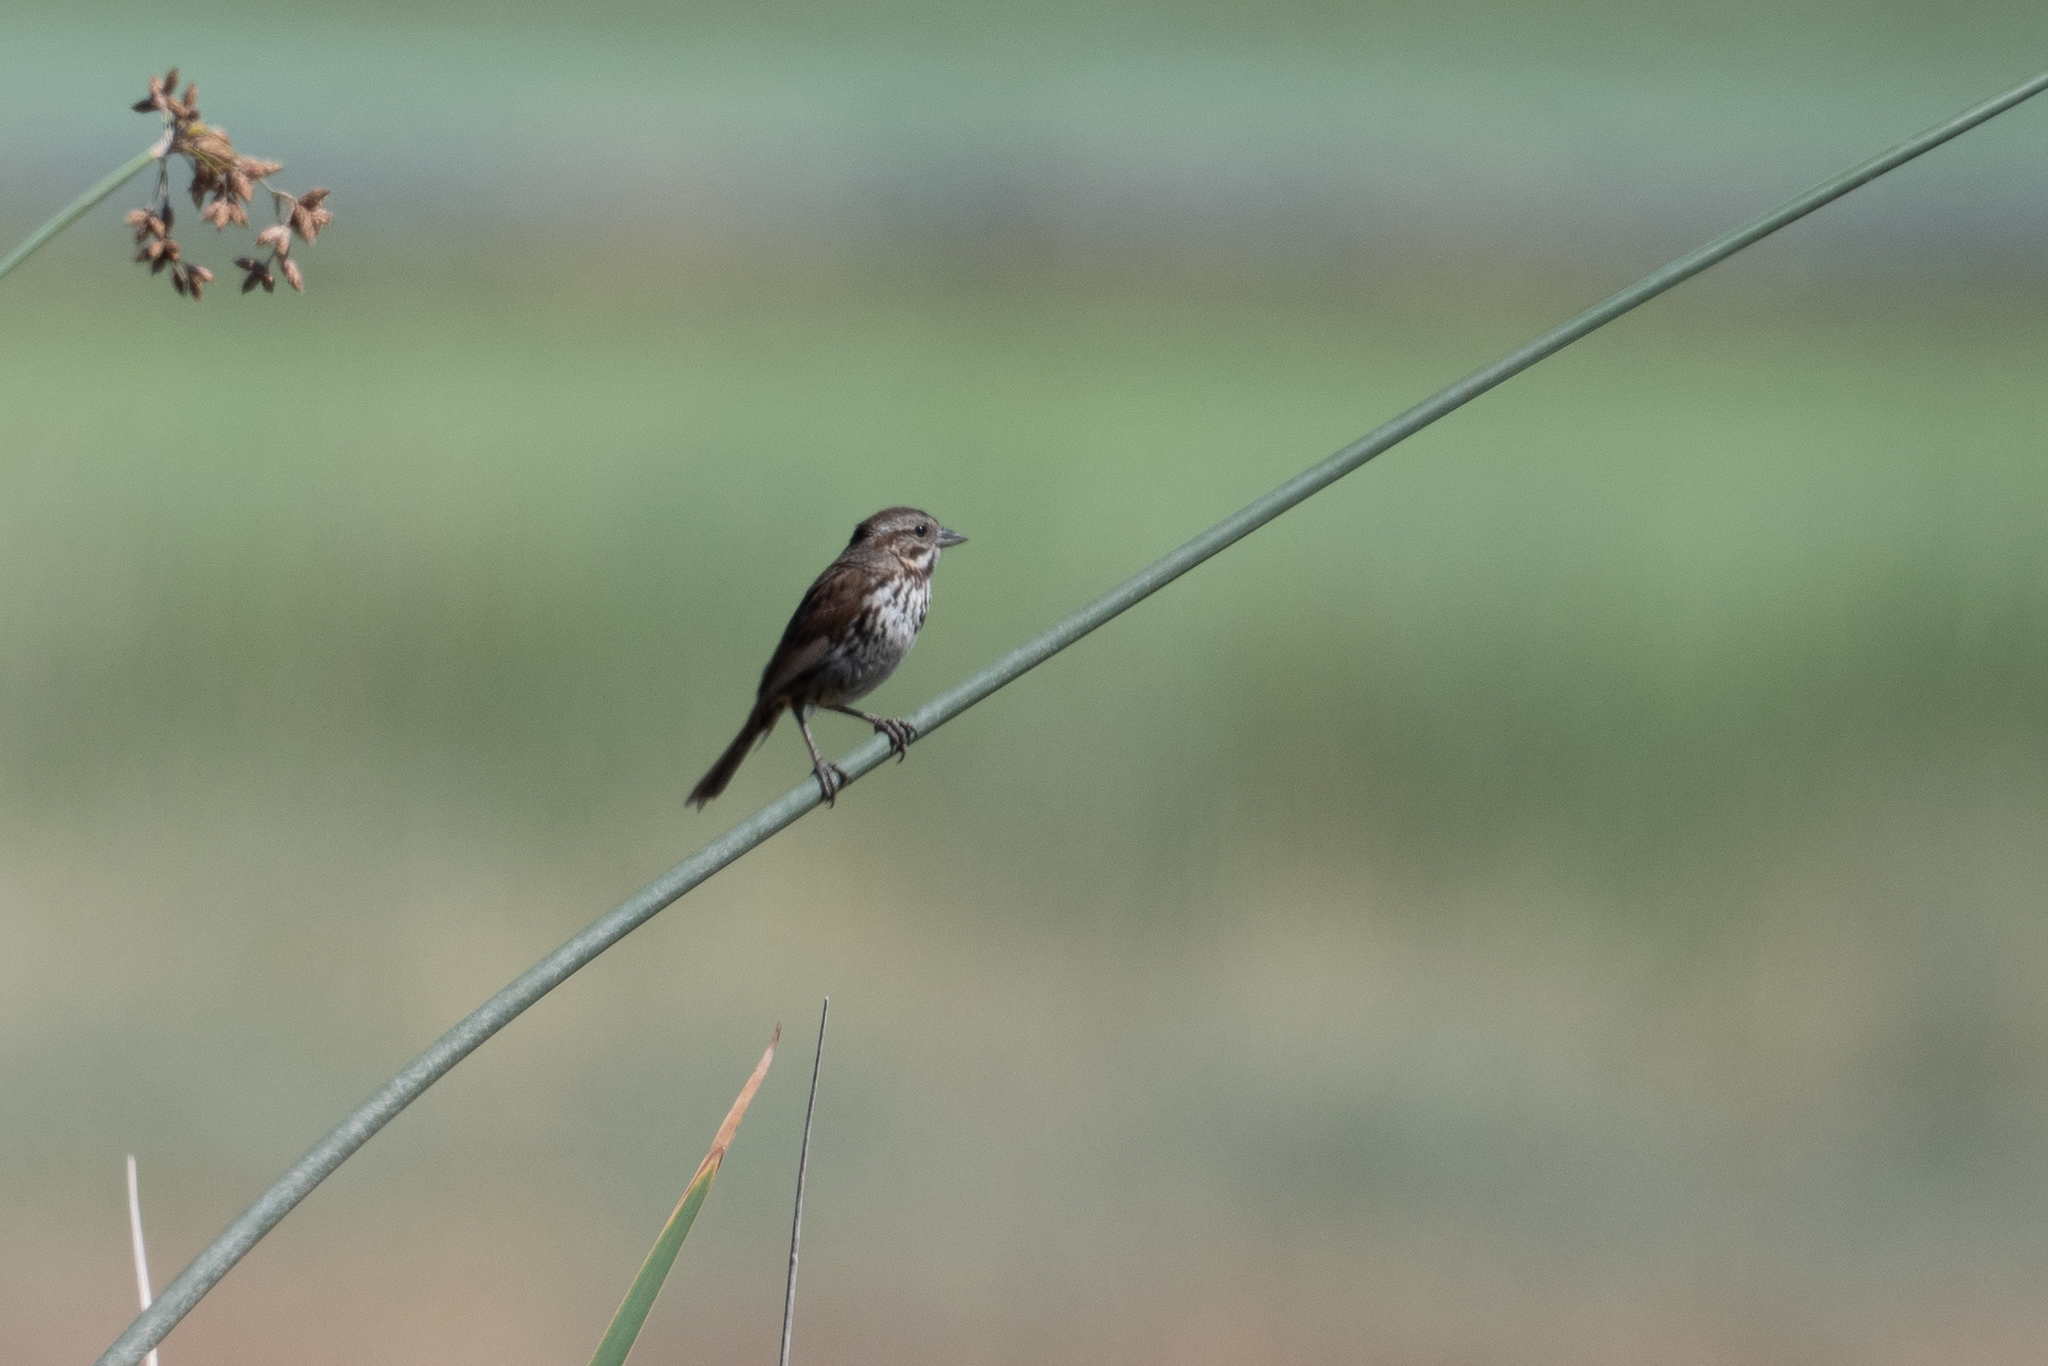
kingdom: Animalia
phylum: Chordata
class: Aves
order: Passeriformes
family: Passerellidae
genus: Melospiza
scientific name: Melospiza melodia
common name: Song sparrow
